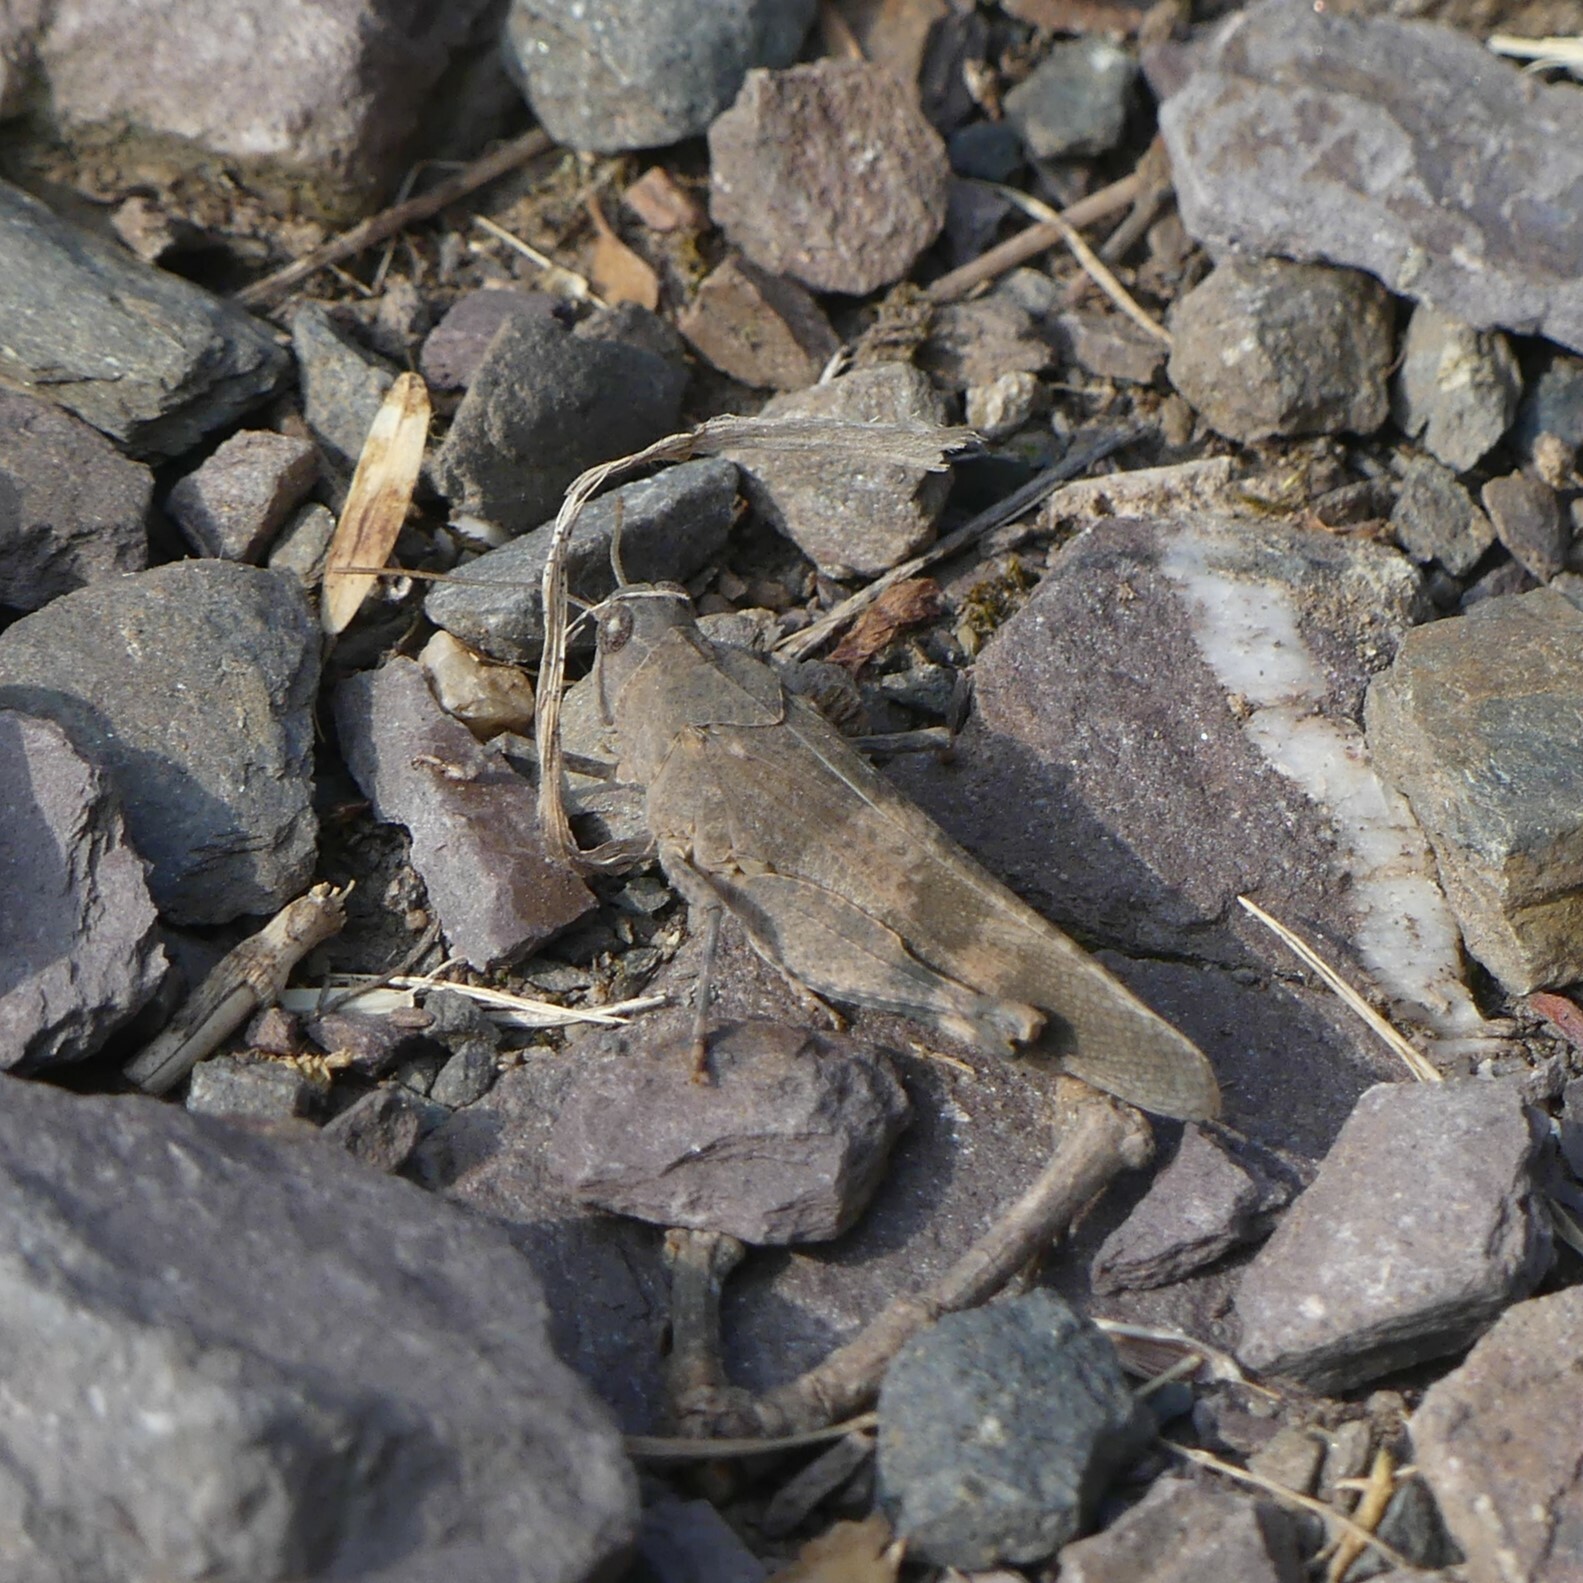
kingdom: Animalia
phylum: Arthropoda
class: Insecta
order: Orthoptera
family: Acrididae
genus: Oedipoda
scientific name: Oedipoda germanica
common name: Red band-winged grasshopper
